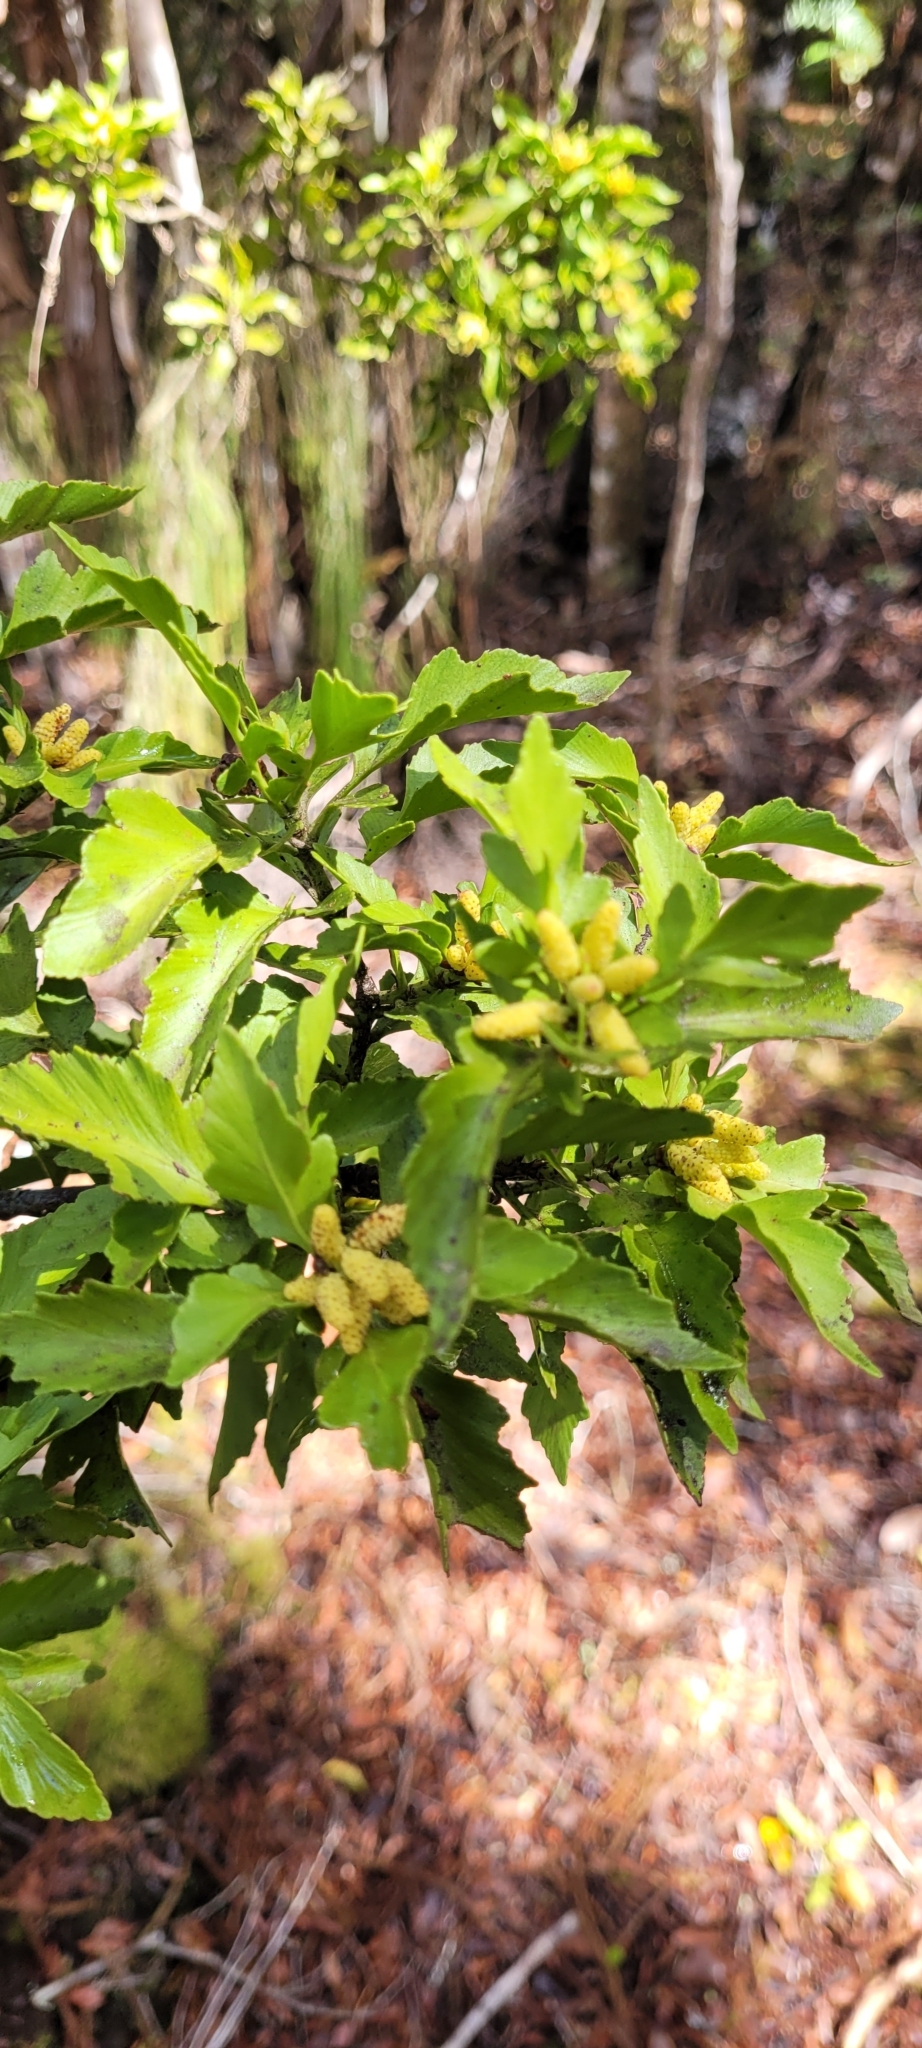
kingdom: Plantae
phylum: Tracheophyta
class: Pinopsida
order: Pinales
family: Phyllocladaceae
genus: Phyllocladus
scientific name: Phyllocladus trichomanoides
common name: Celery pine
